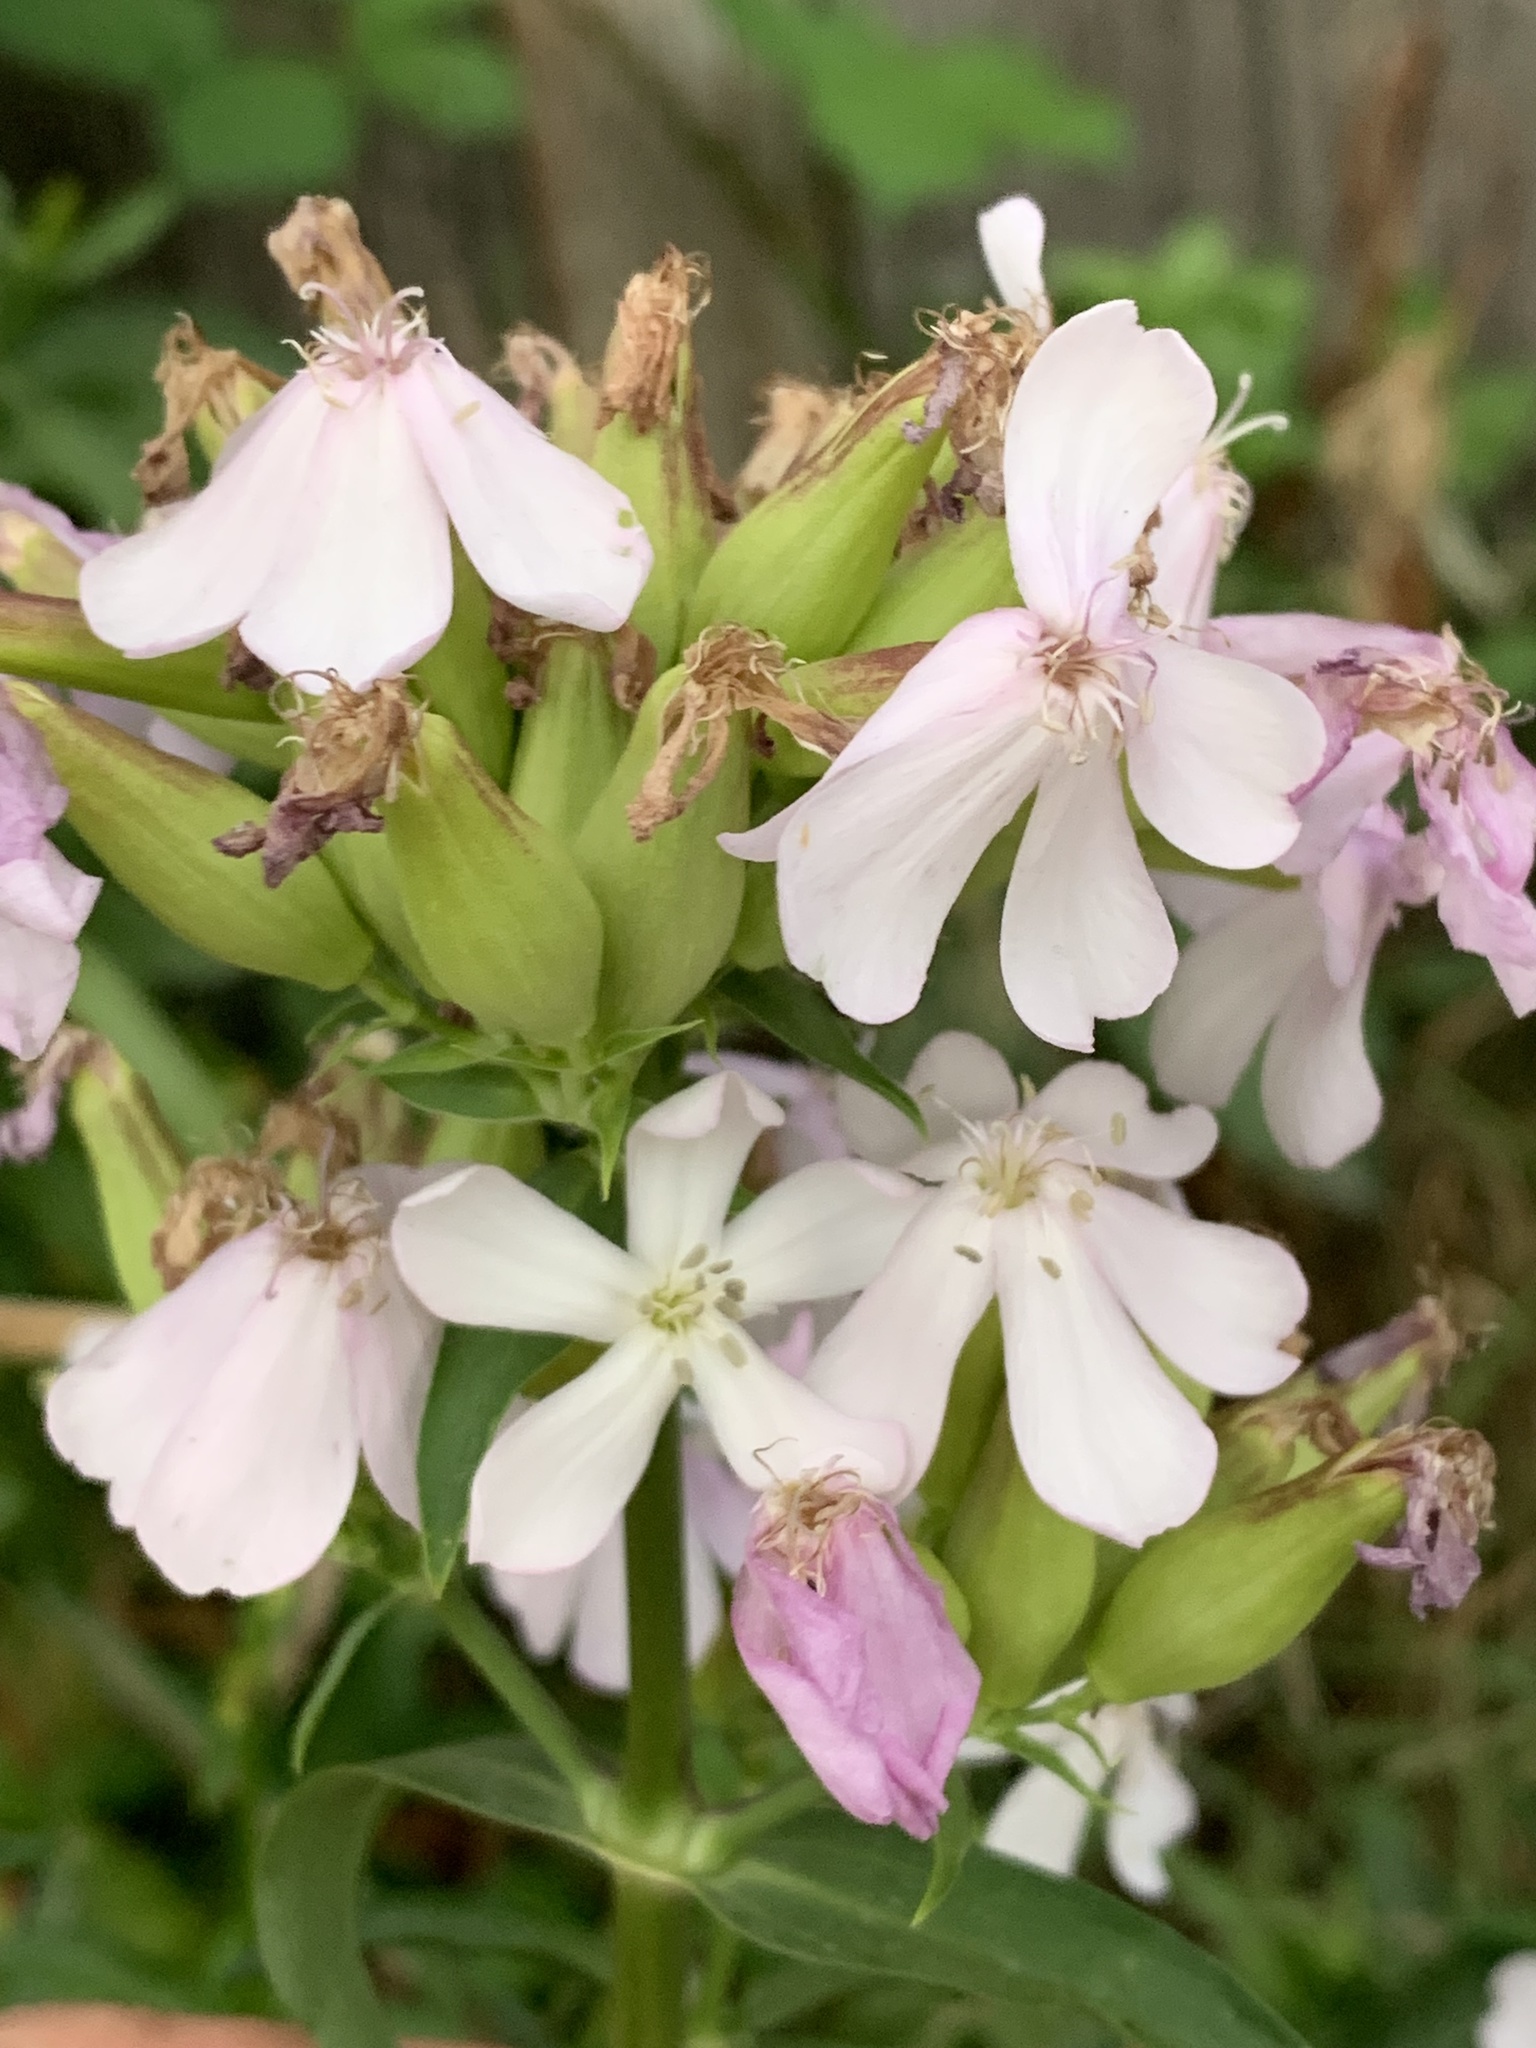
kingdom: Plantae
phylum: Tracheophyta
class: Magnoliopsida
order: Caryophyllales
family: Caryophyllaceae
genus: Saponaria
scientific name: Saponaria officinalis
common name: Soapwort
